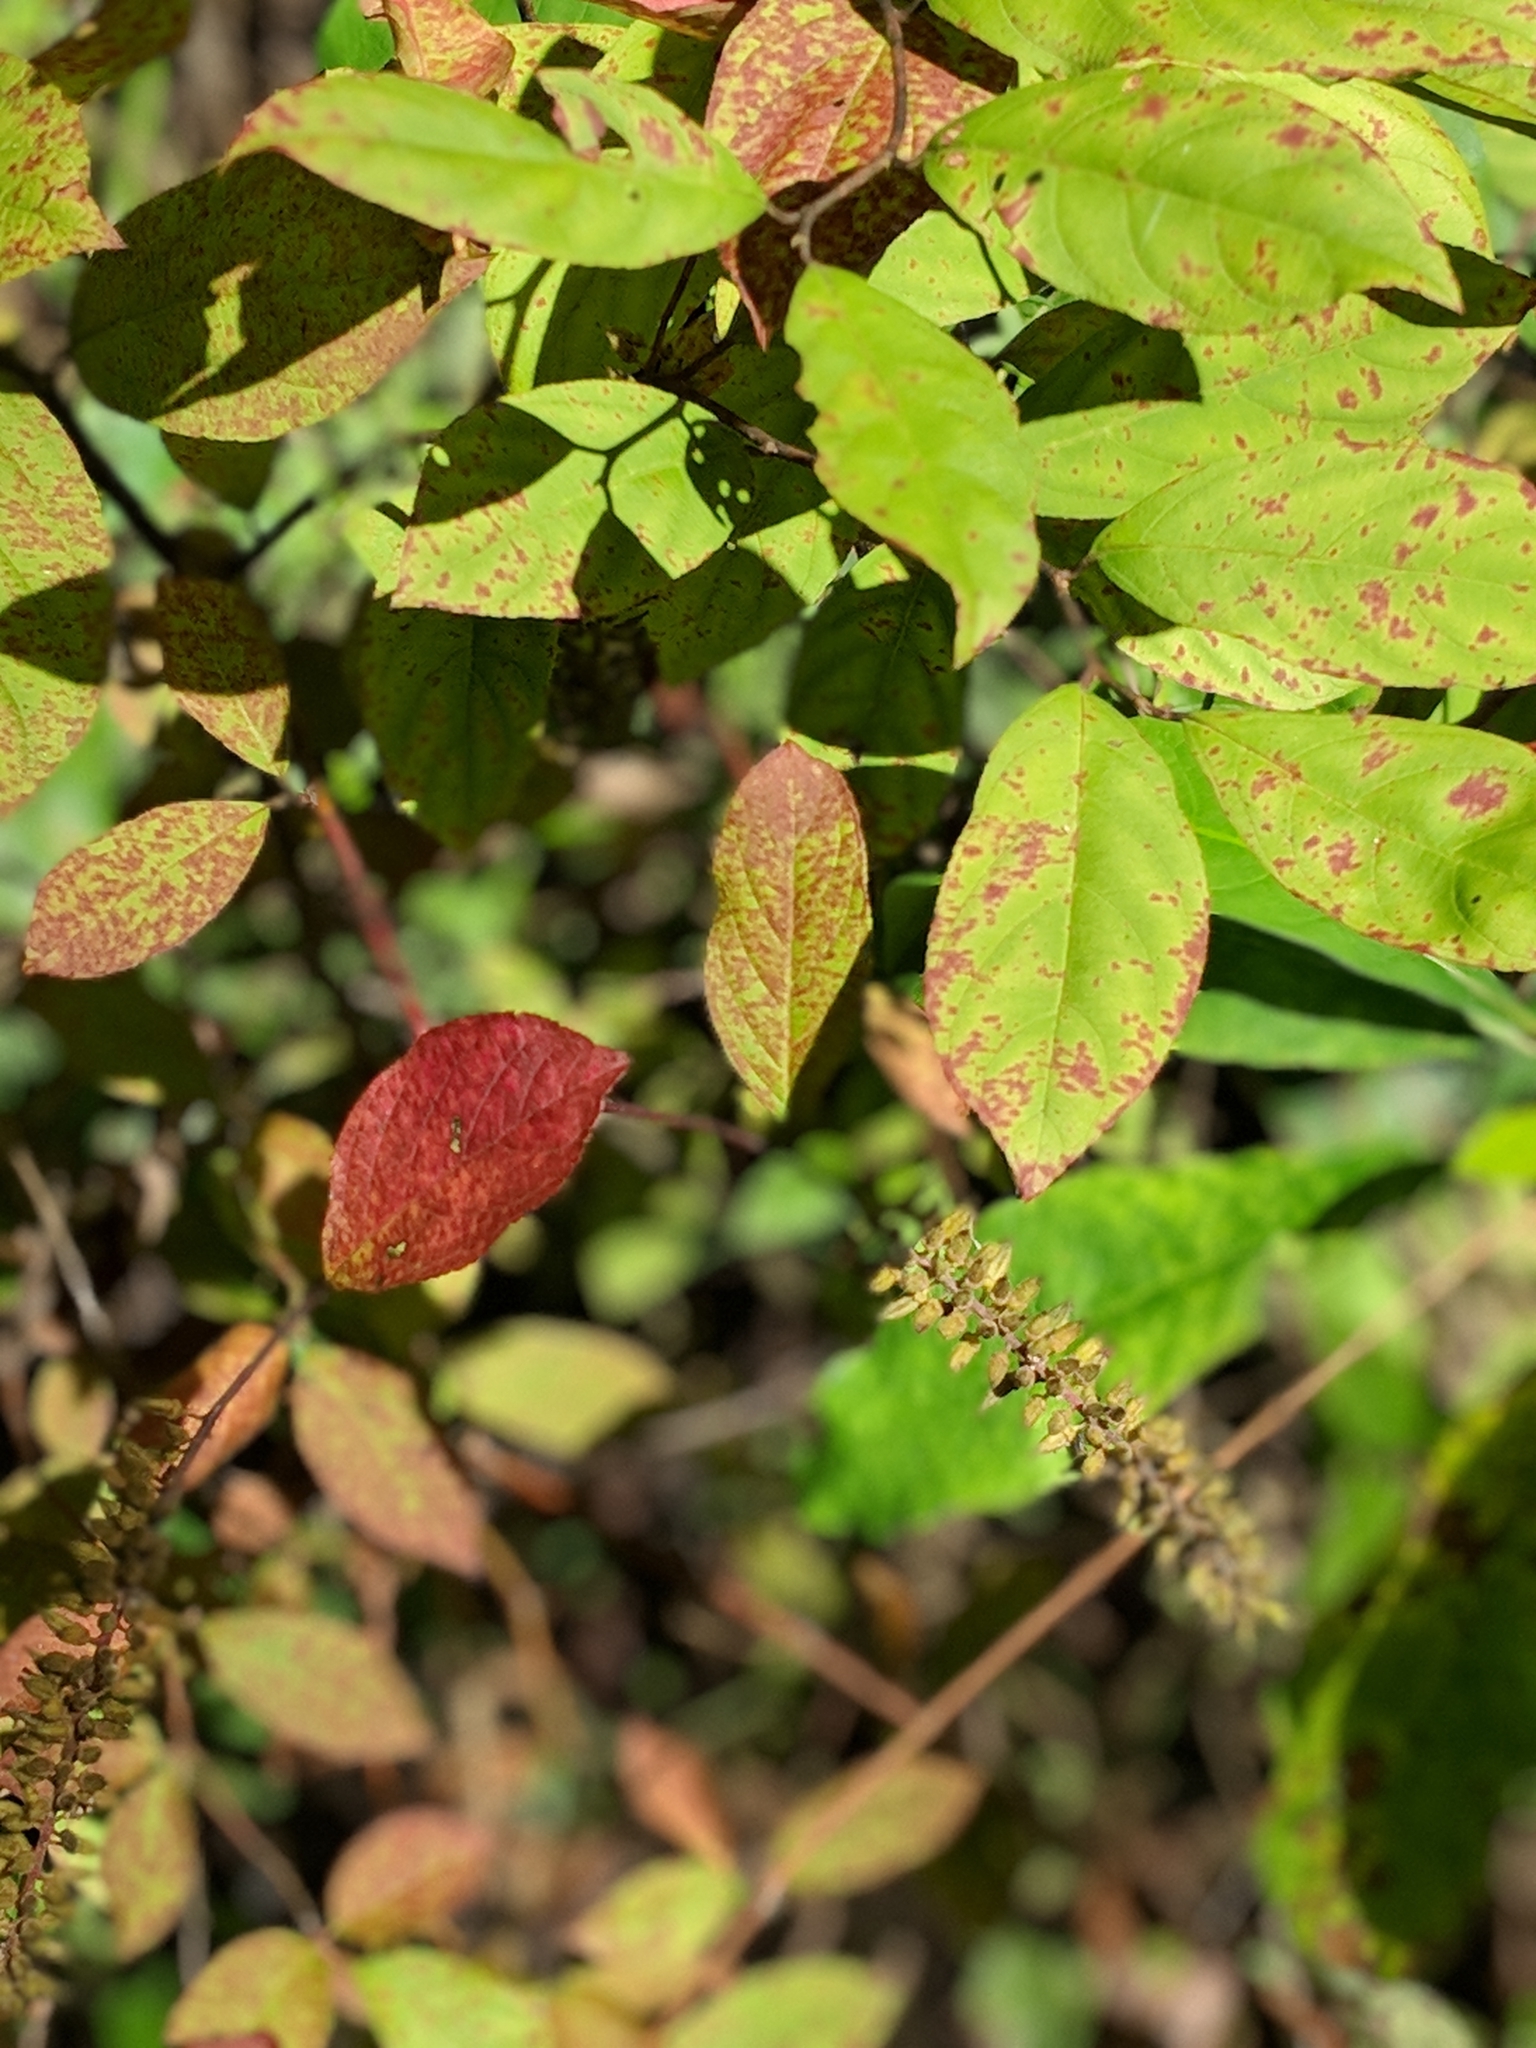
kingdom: Plantae
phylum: Tracheophyta
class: Magnoliopsida
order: Saxifragales
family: Iteaceae
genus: Itea
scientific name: Itea virginica
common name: Sweetspire
